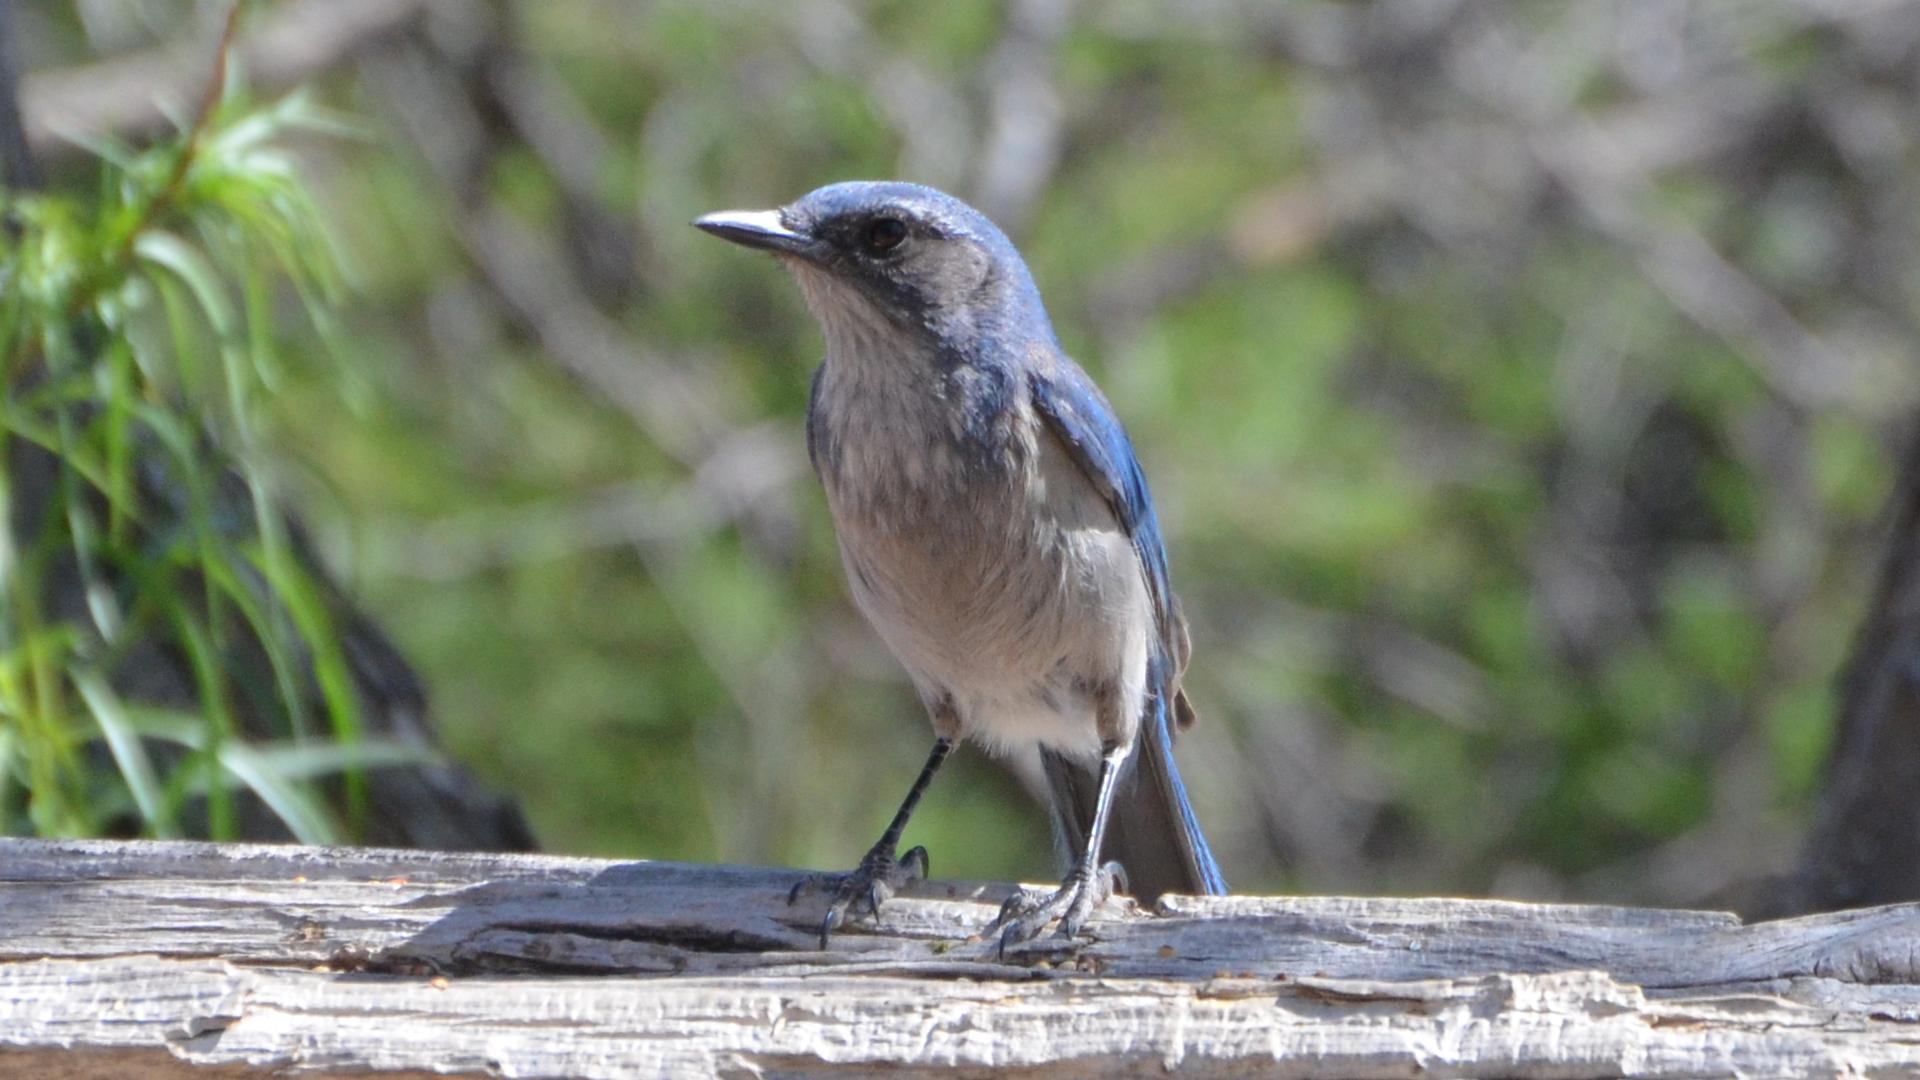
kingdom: Animalia
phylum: Chordata
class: Aves
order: Passeriformes
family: Corvidae
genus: Aphelocoma
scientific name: Aphelocoma woodhouseii
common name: Woodhouse's scrub-jay
